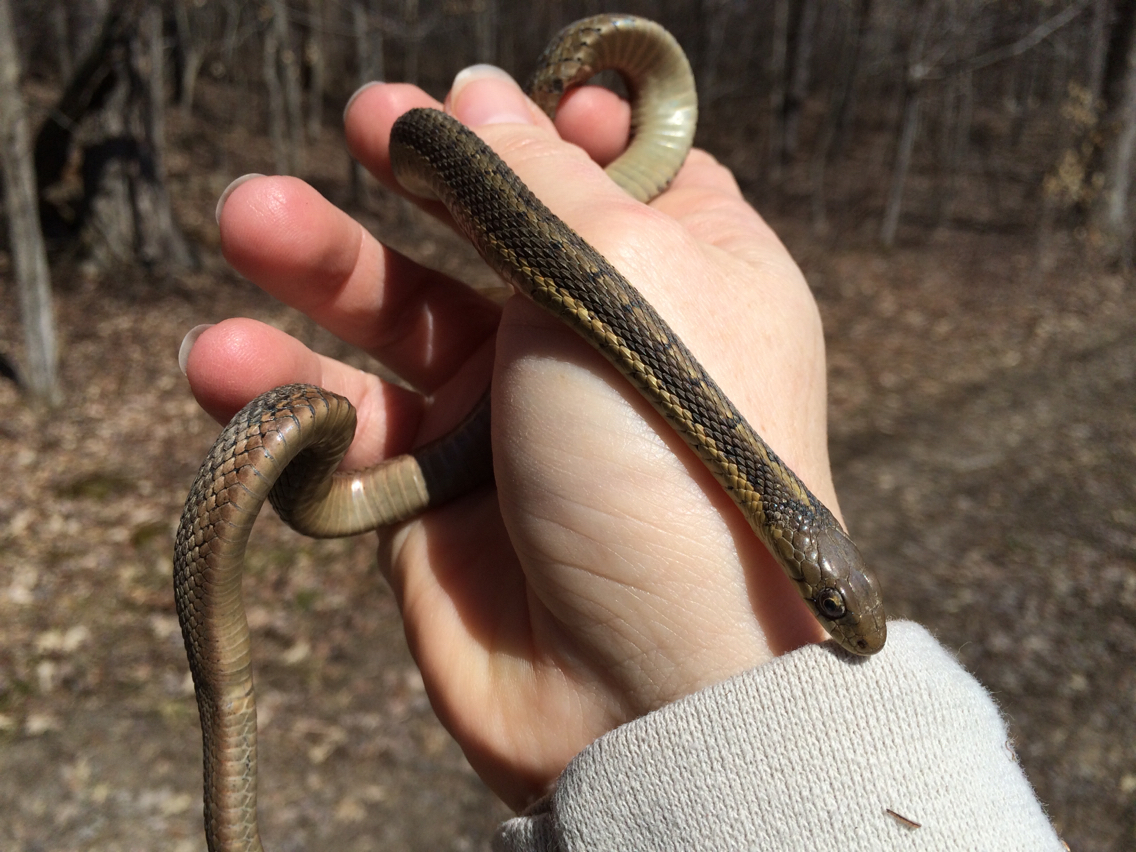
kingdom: Animalia
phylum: Chordata
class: Squamata
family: Colubridae
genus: Thamnophis
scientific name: Thamnophis sirtalis
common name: Common garter snake
